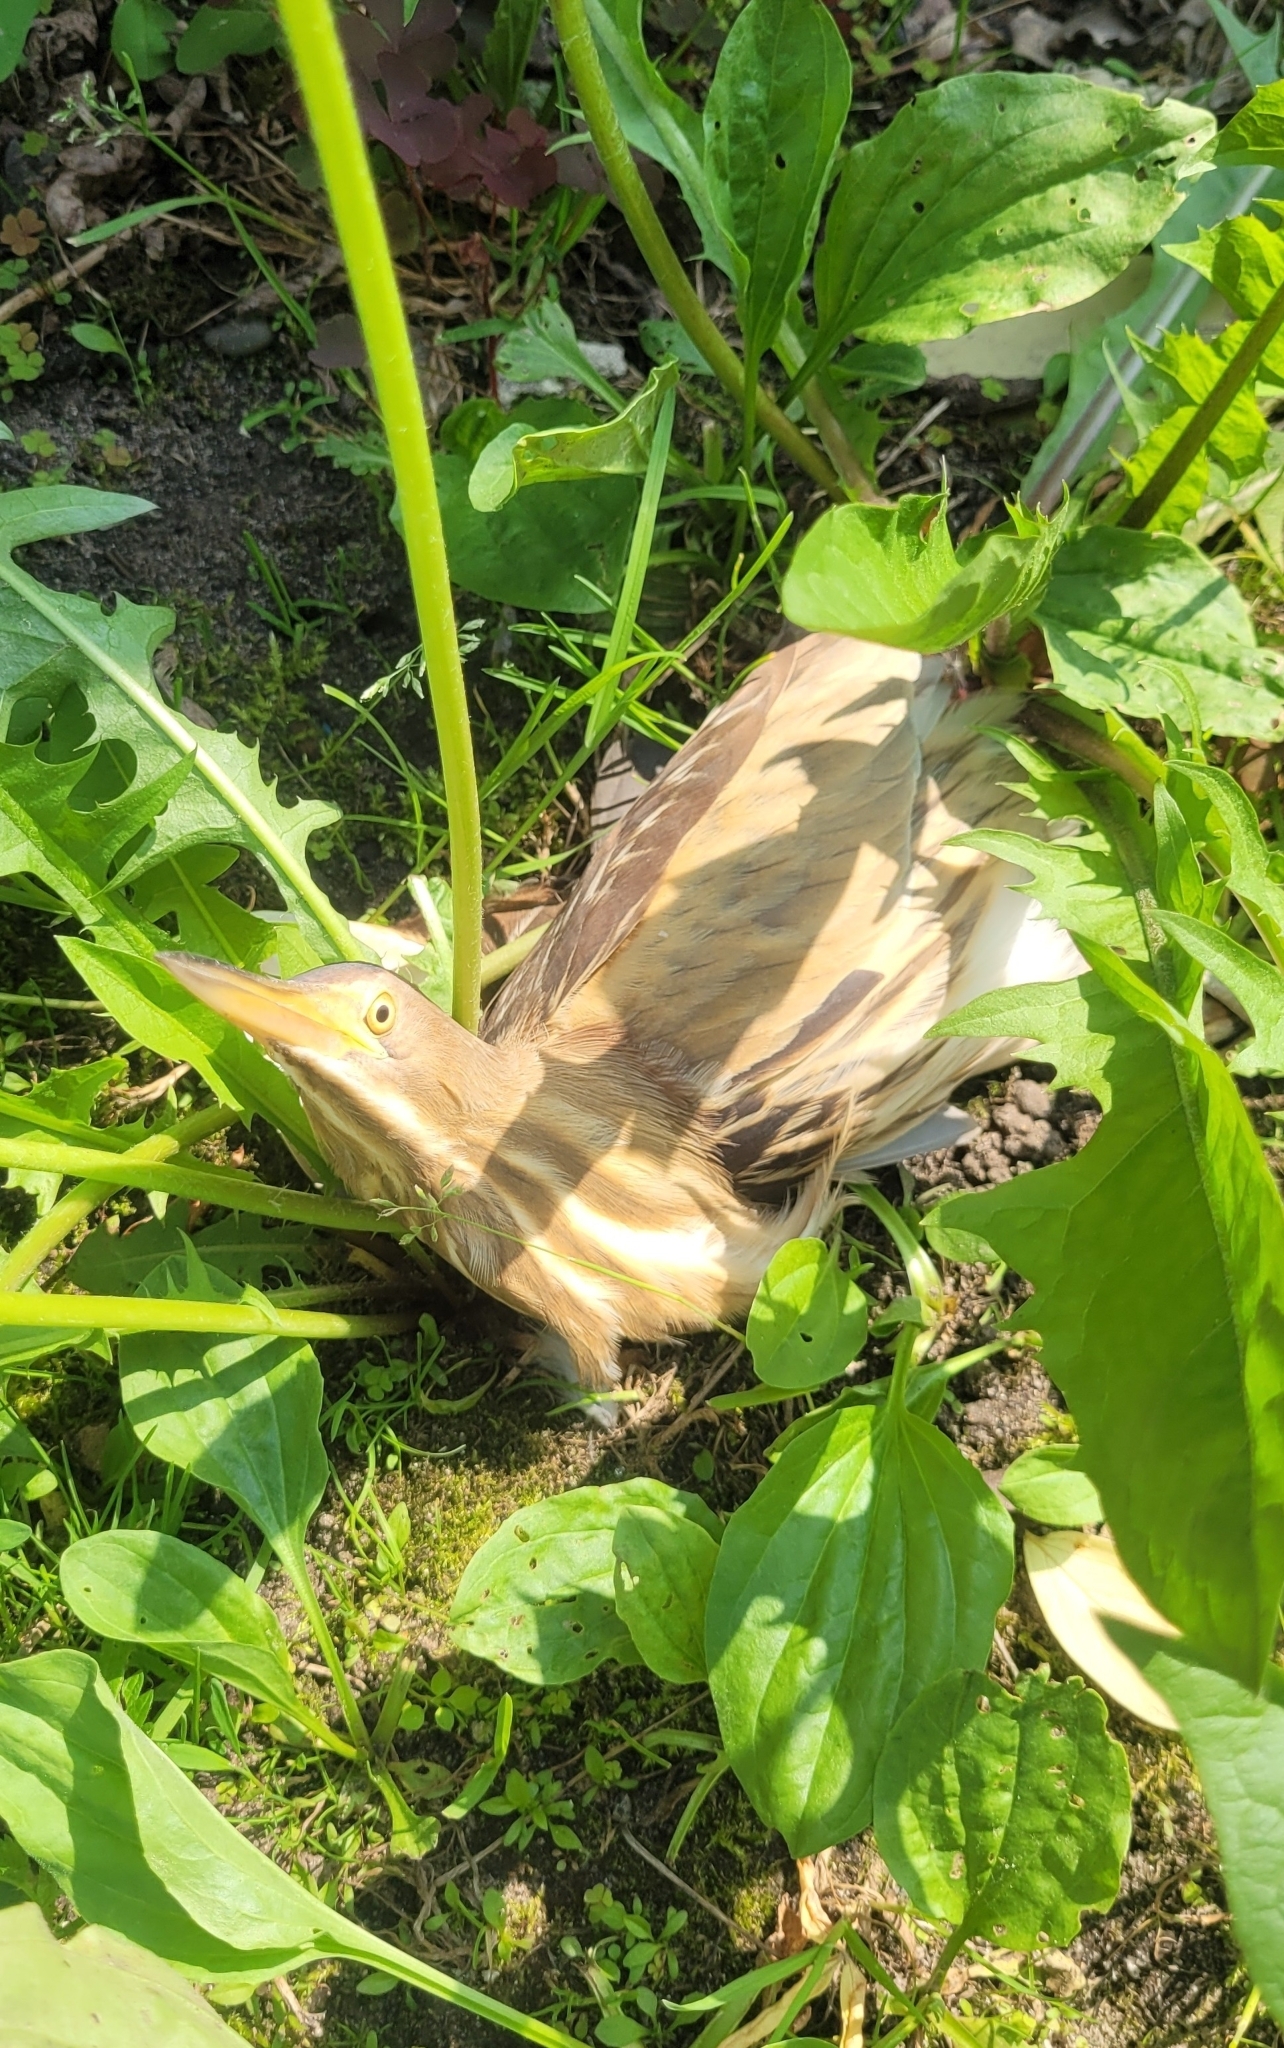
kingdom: Animalia
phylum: Chordata
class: Aves
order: Pelecaniformes
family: Ardeidae
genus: Ixobrychus
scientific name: Ixobrychus minutus
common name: Little bittern
